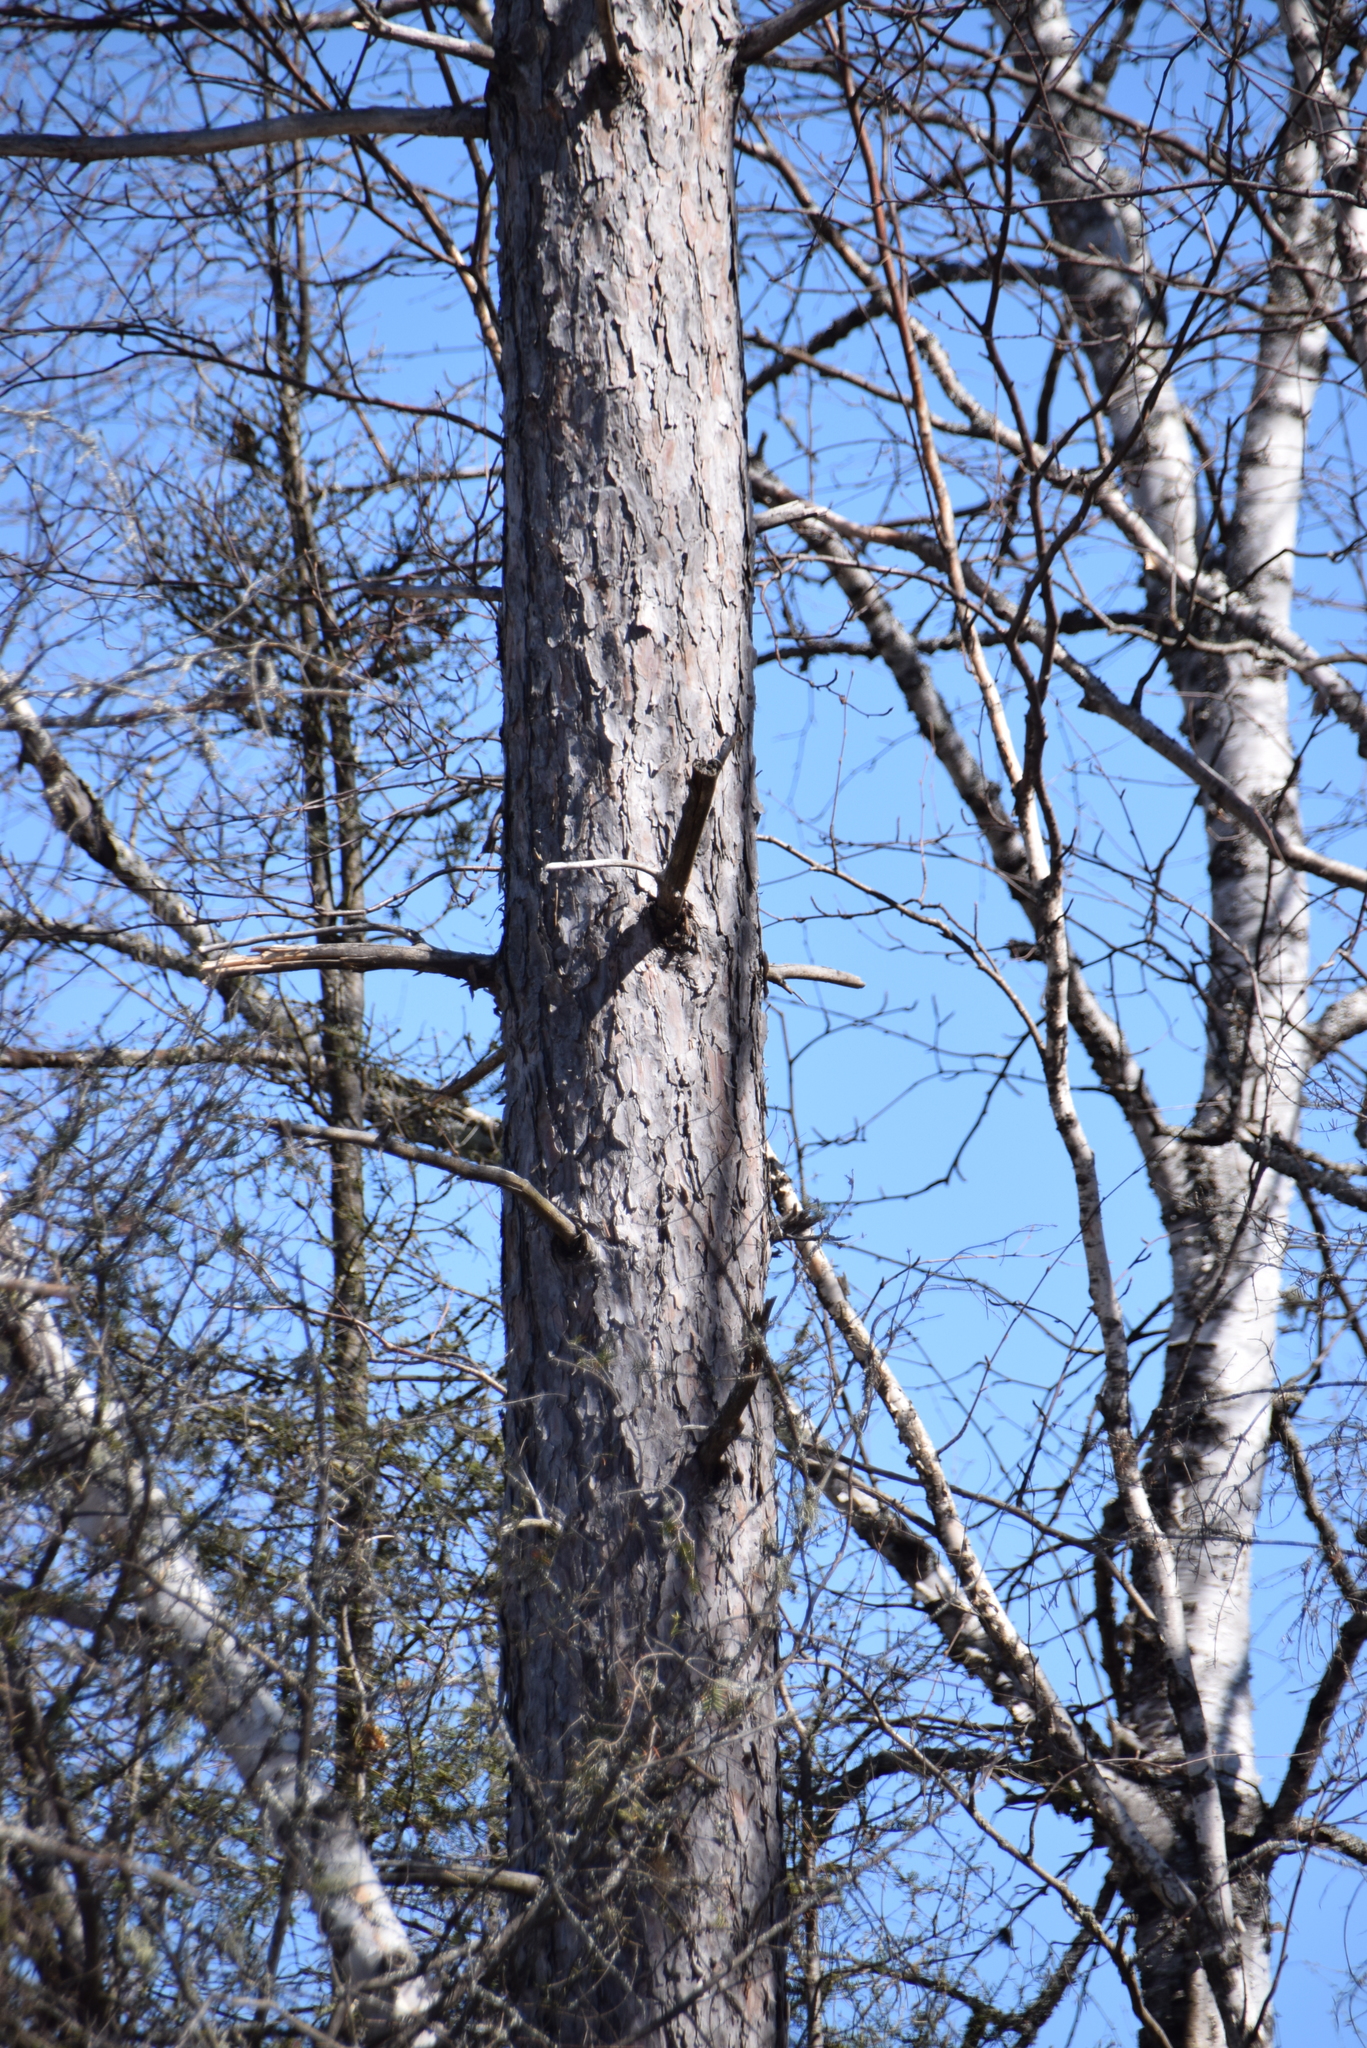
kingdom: Plantae
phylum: Tracheophyta
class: Pinopsida
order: Pinales
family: Pinaceae
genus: Pinus
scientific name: Pinus resinosa
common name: Norway pine
